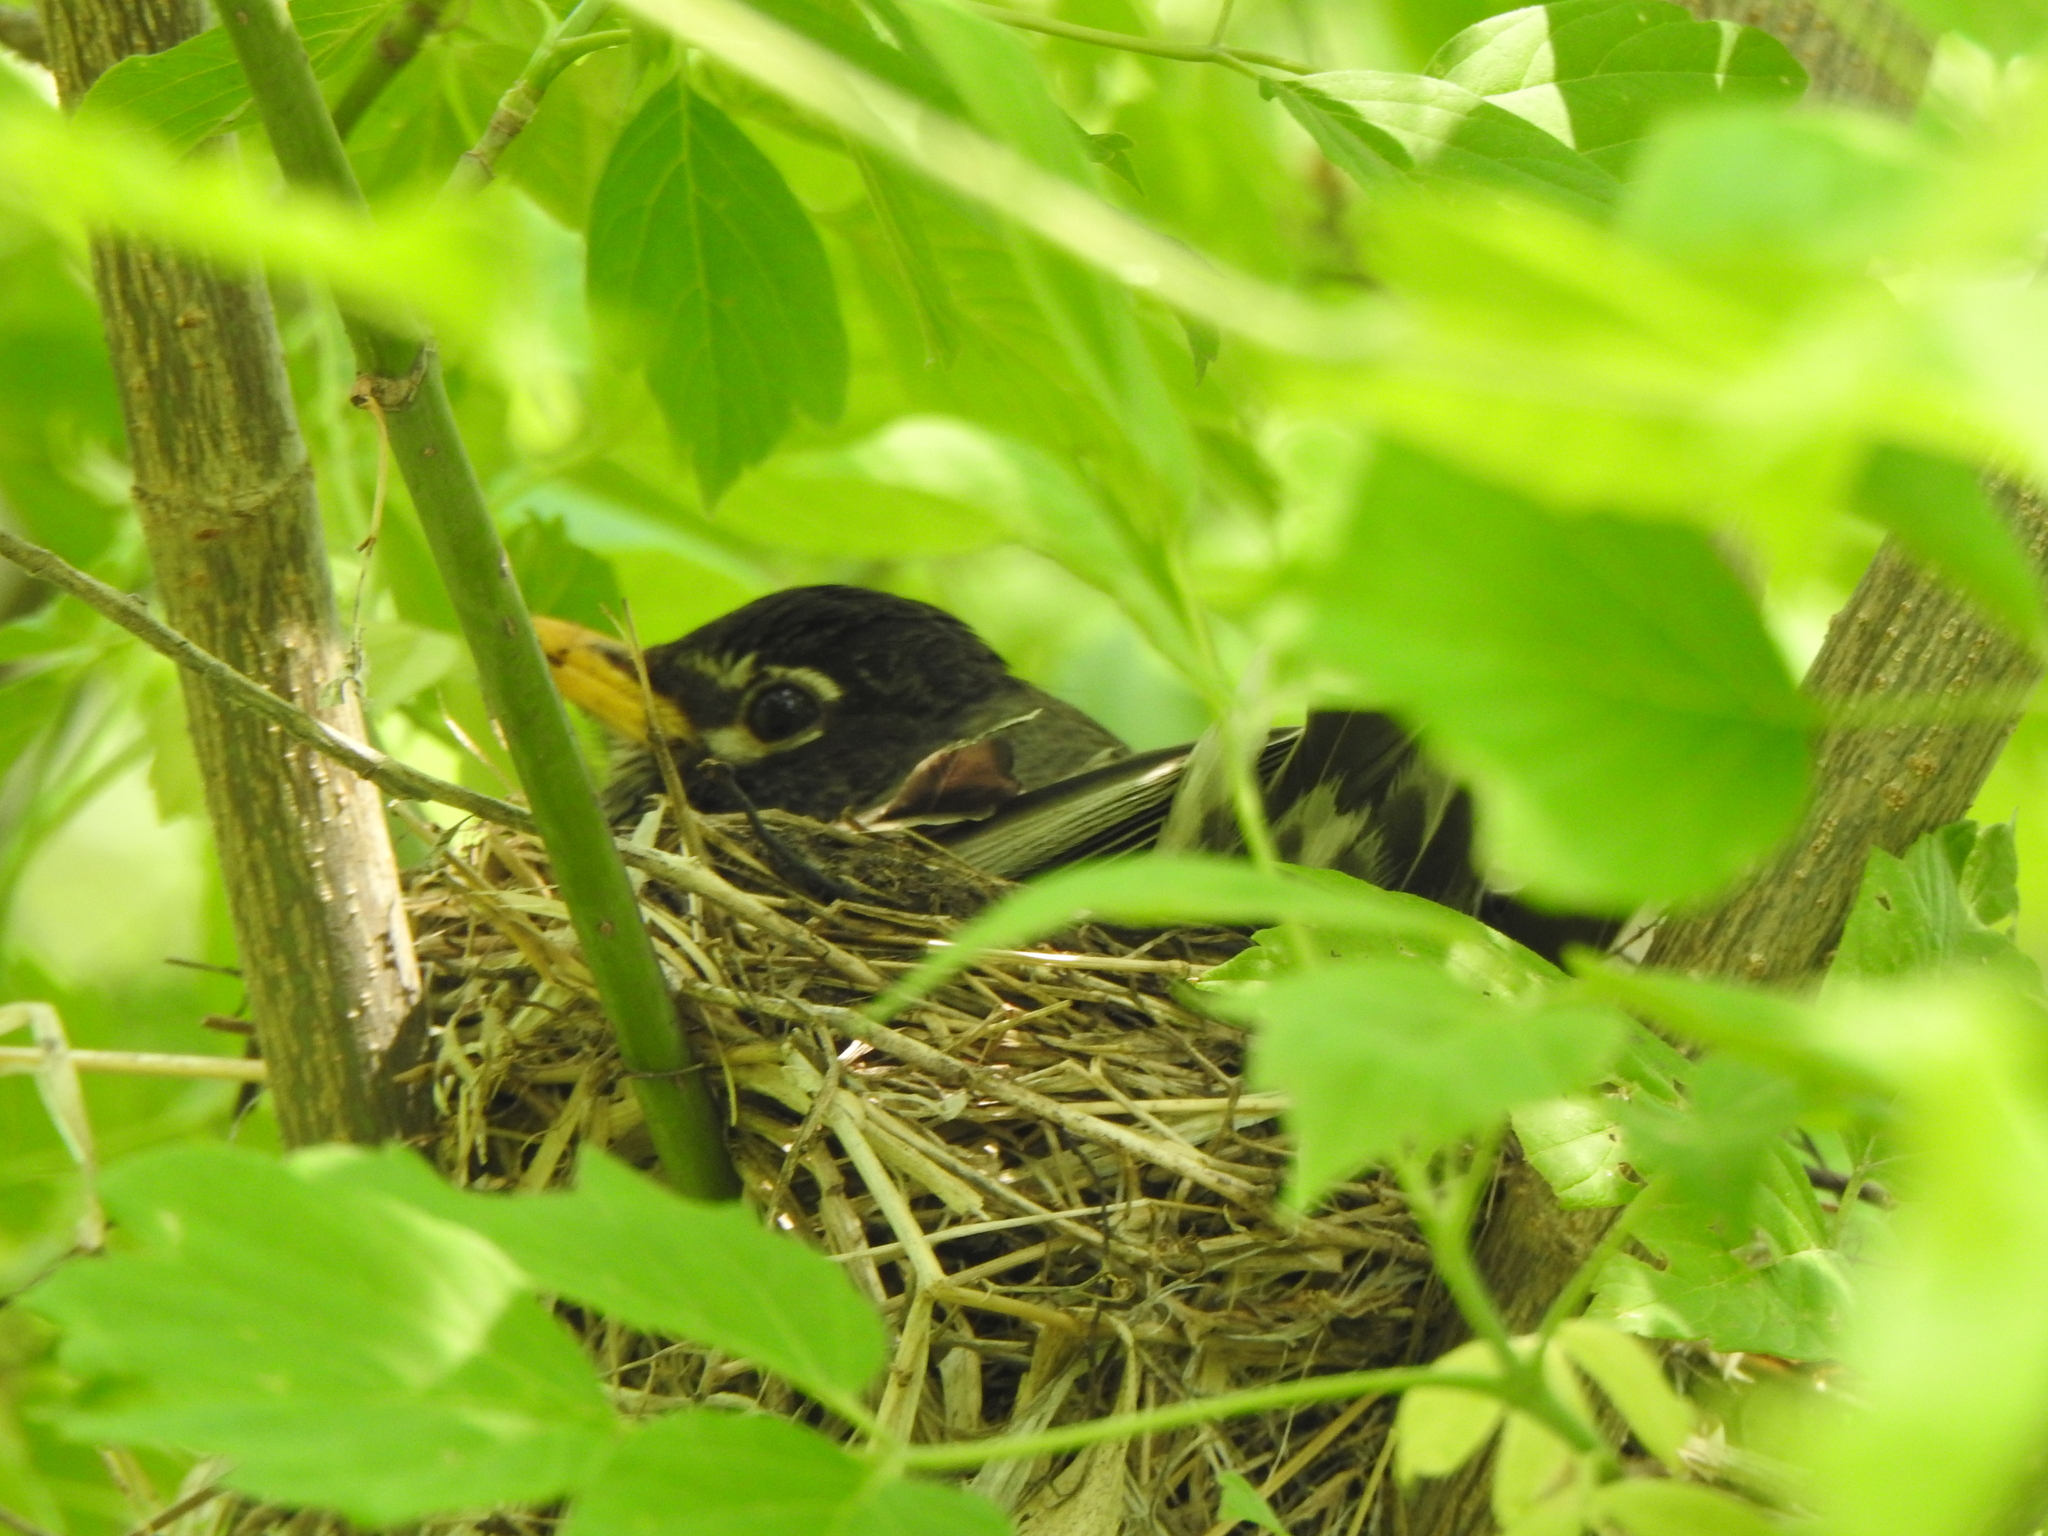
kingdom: Animalia
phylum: Chordata
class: Aves
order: Passeriformes
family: Turdidae
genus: Turdus
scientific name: Turdus migratorius
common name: American robin
